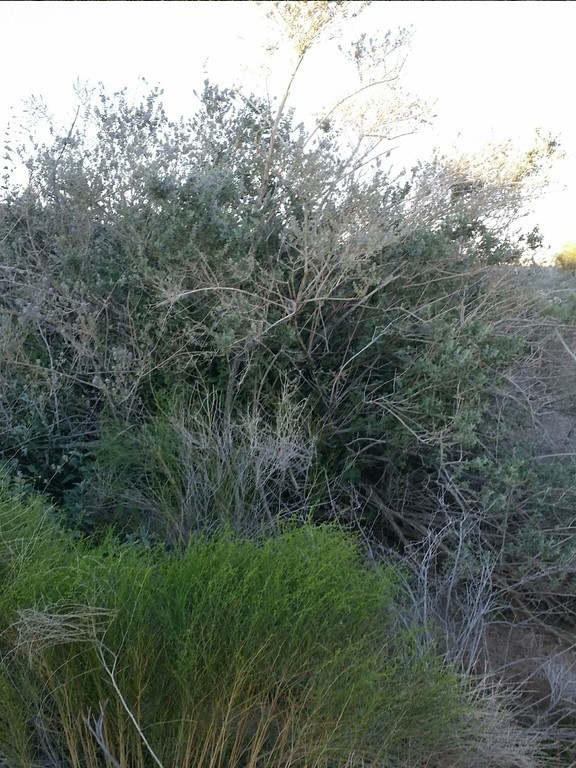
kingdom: Plantae
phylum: Tracheophyta
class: Magnoliopsida
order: Lamiales
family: Lamiaceae
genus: Condea
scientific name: Condea emoryi
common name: Chia
